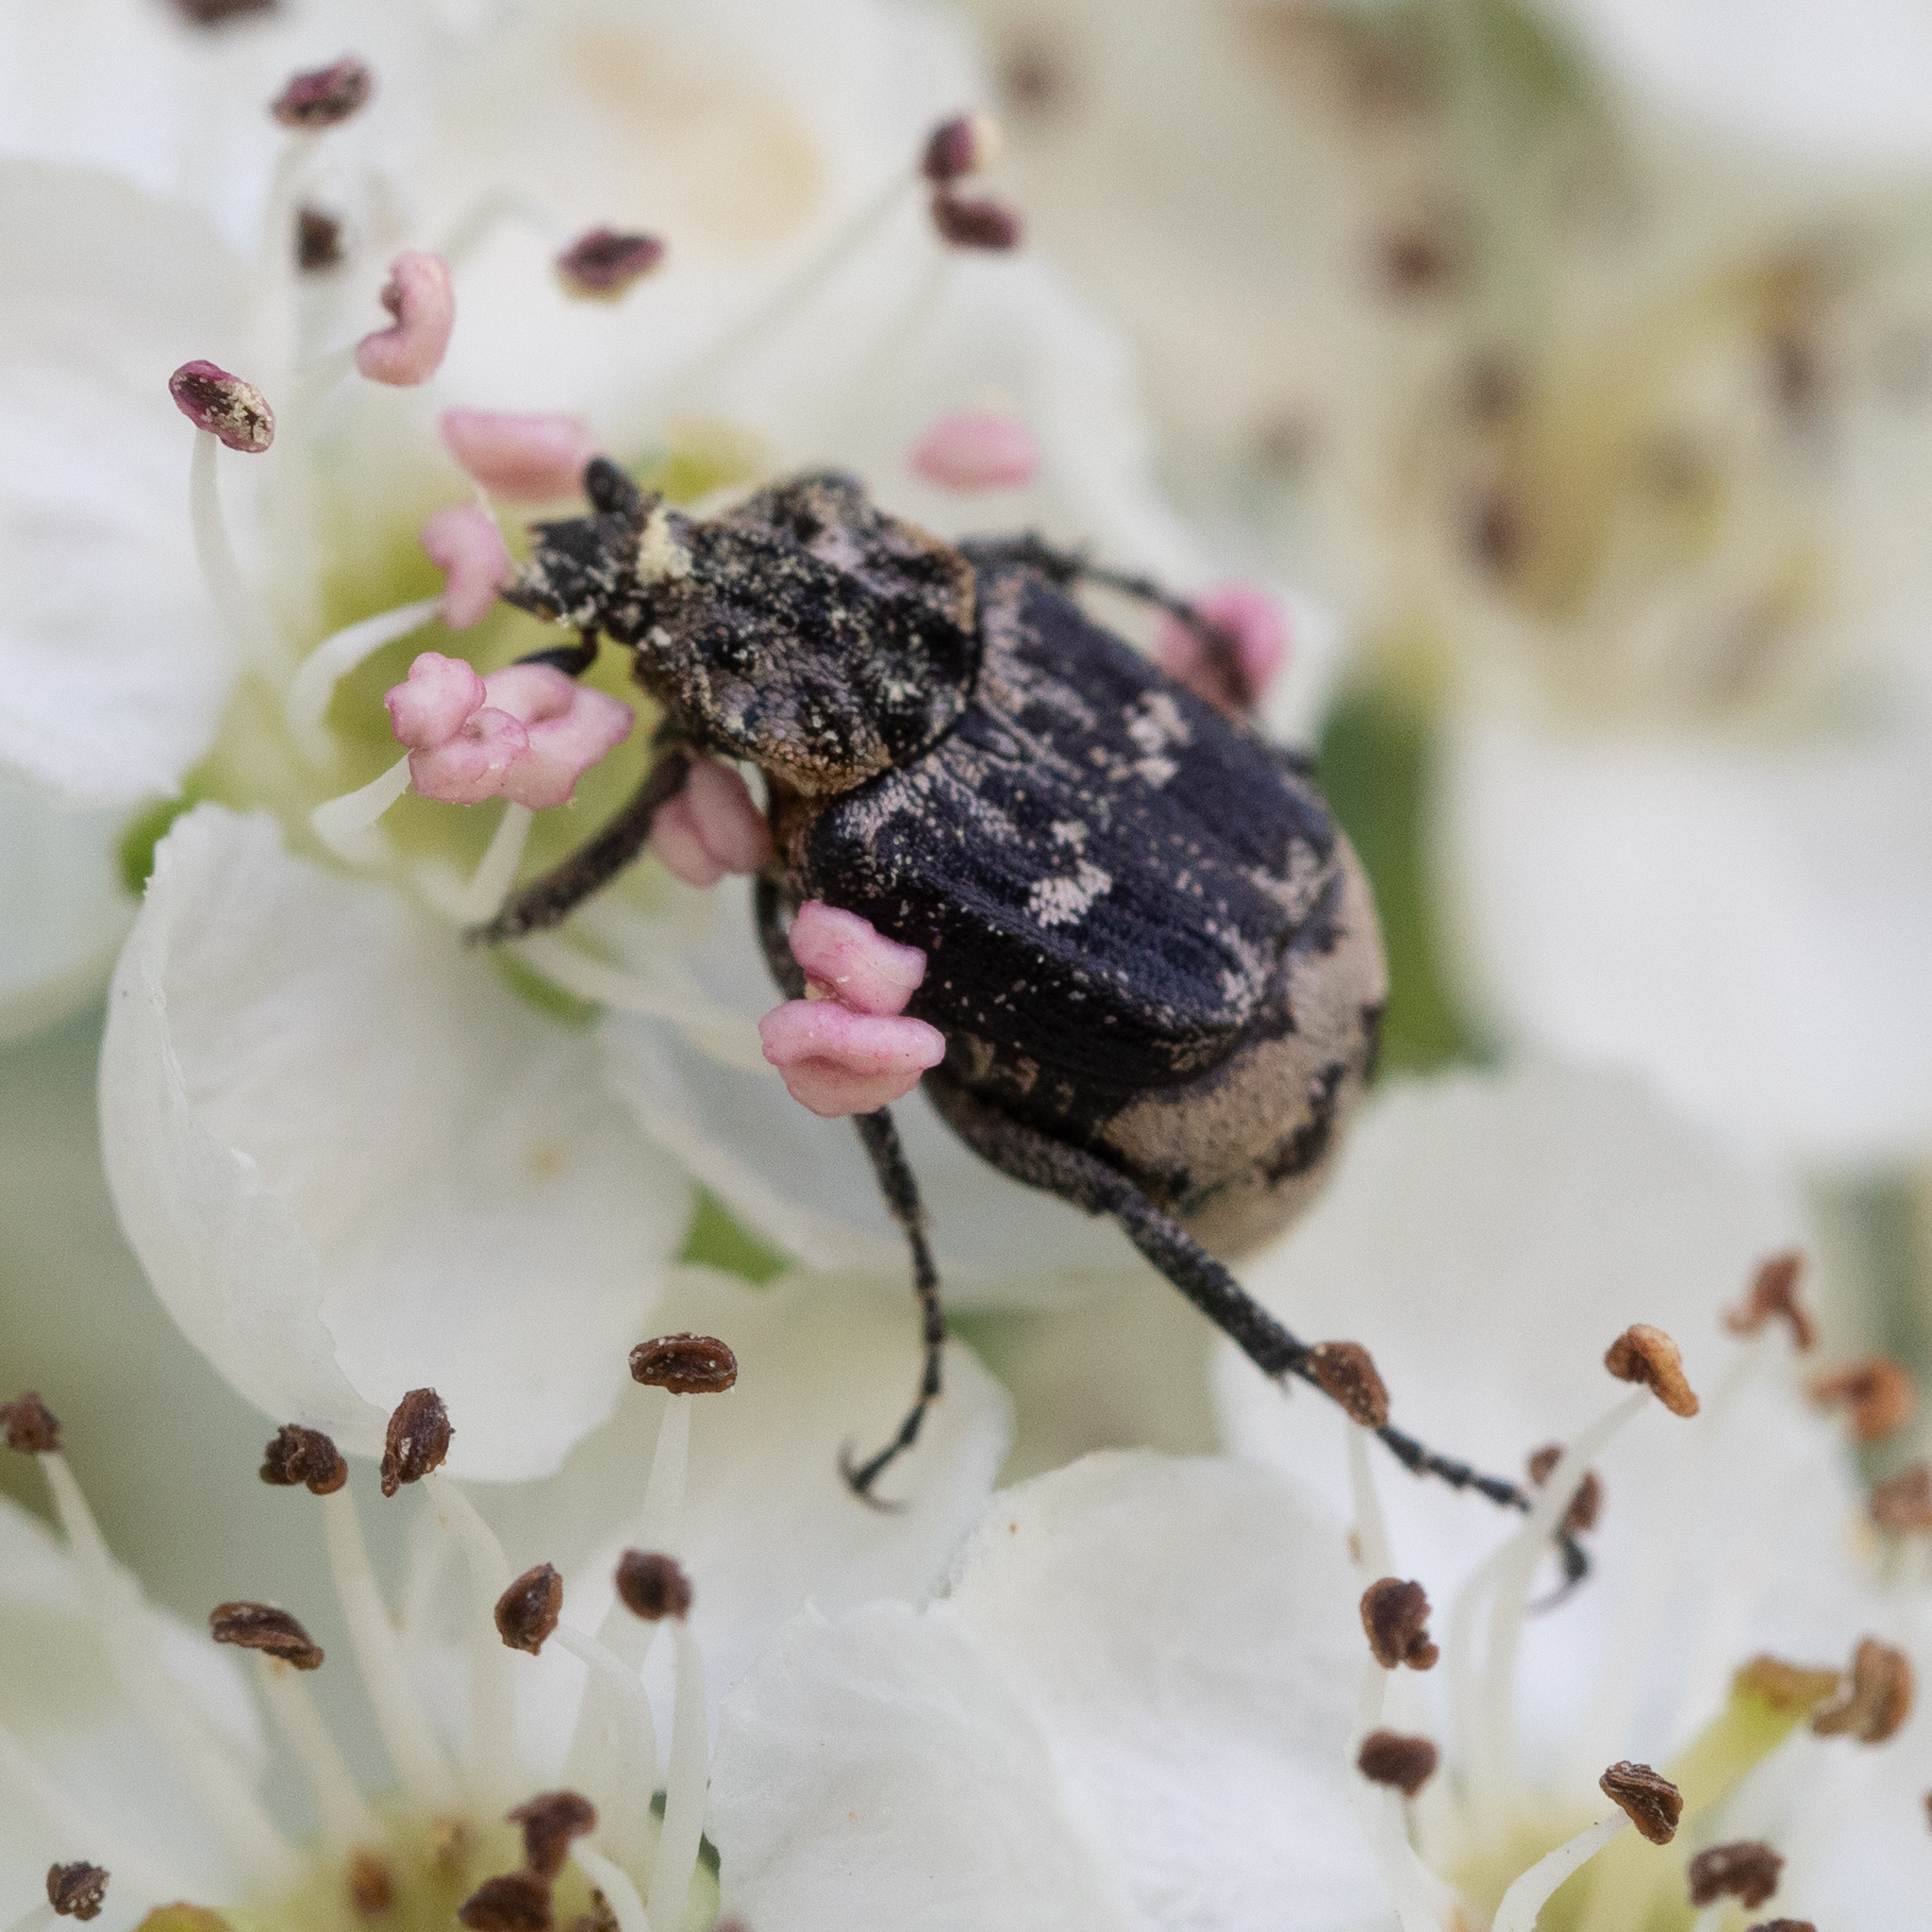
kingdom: Animalia
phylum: Arthropoda
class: Insecta
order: Coleoptera
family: Scarabaeidae
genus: Valgus
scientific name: Valgus hemipterus
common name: Bug flower chafer
